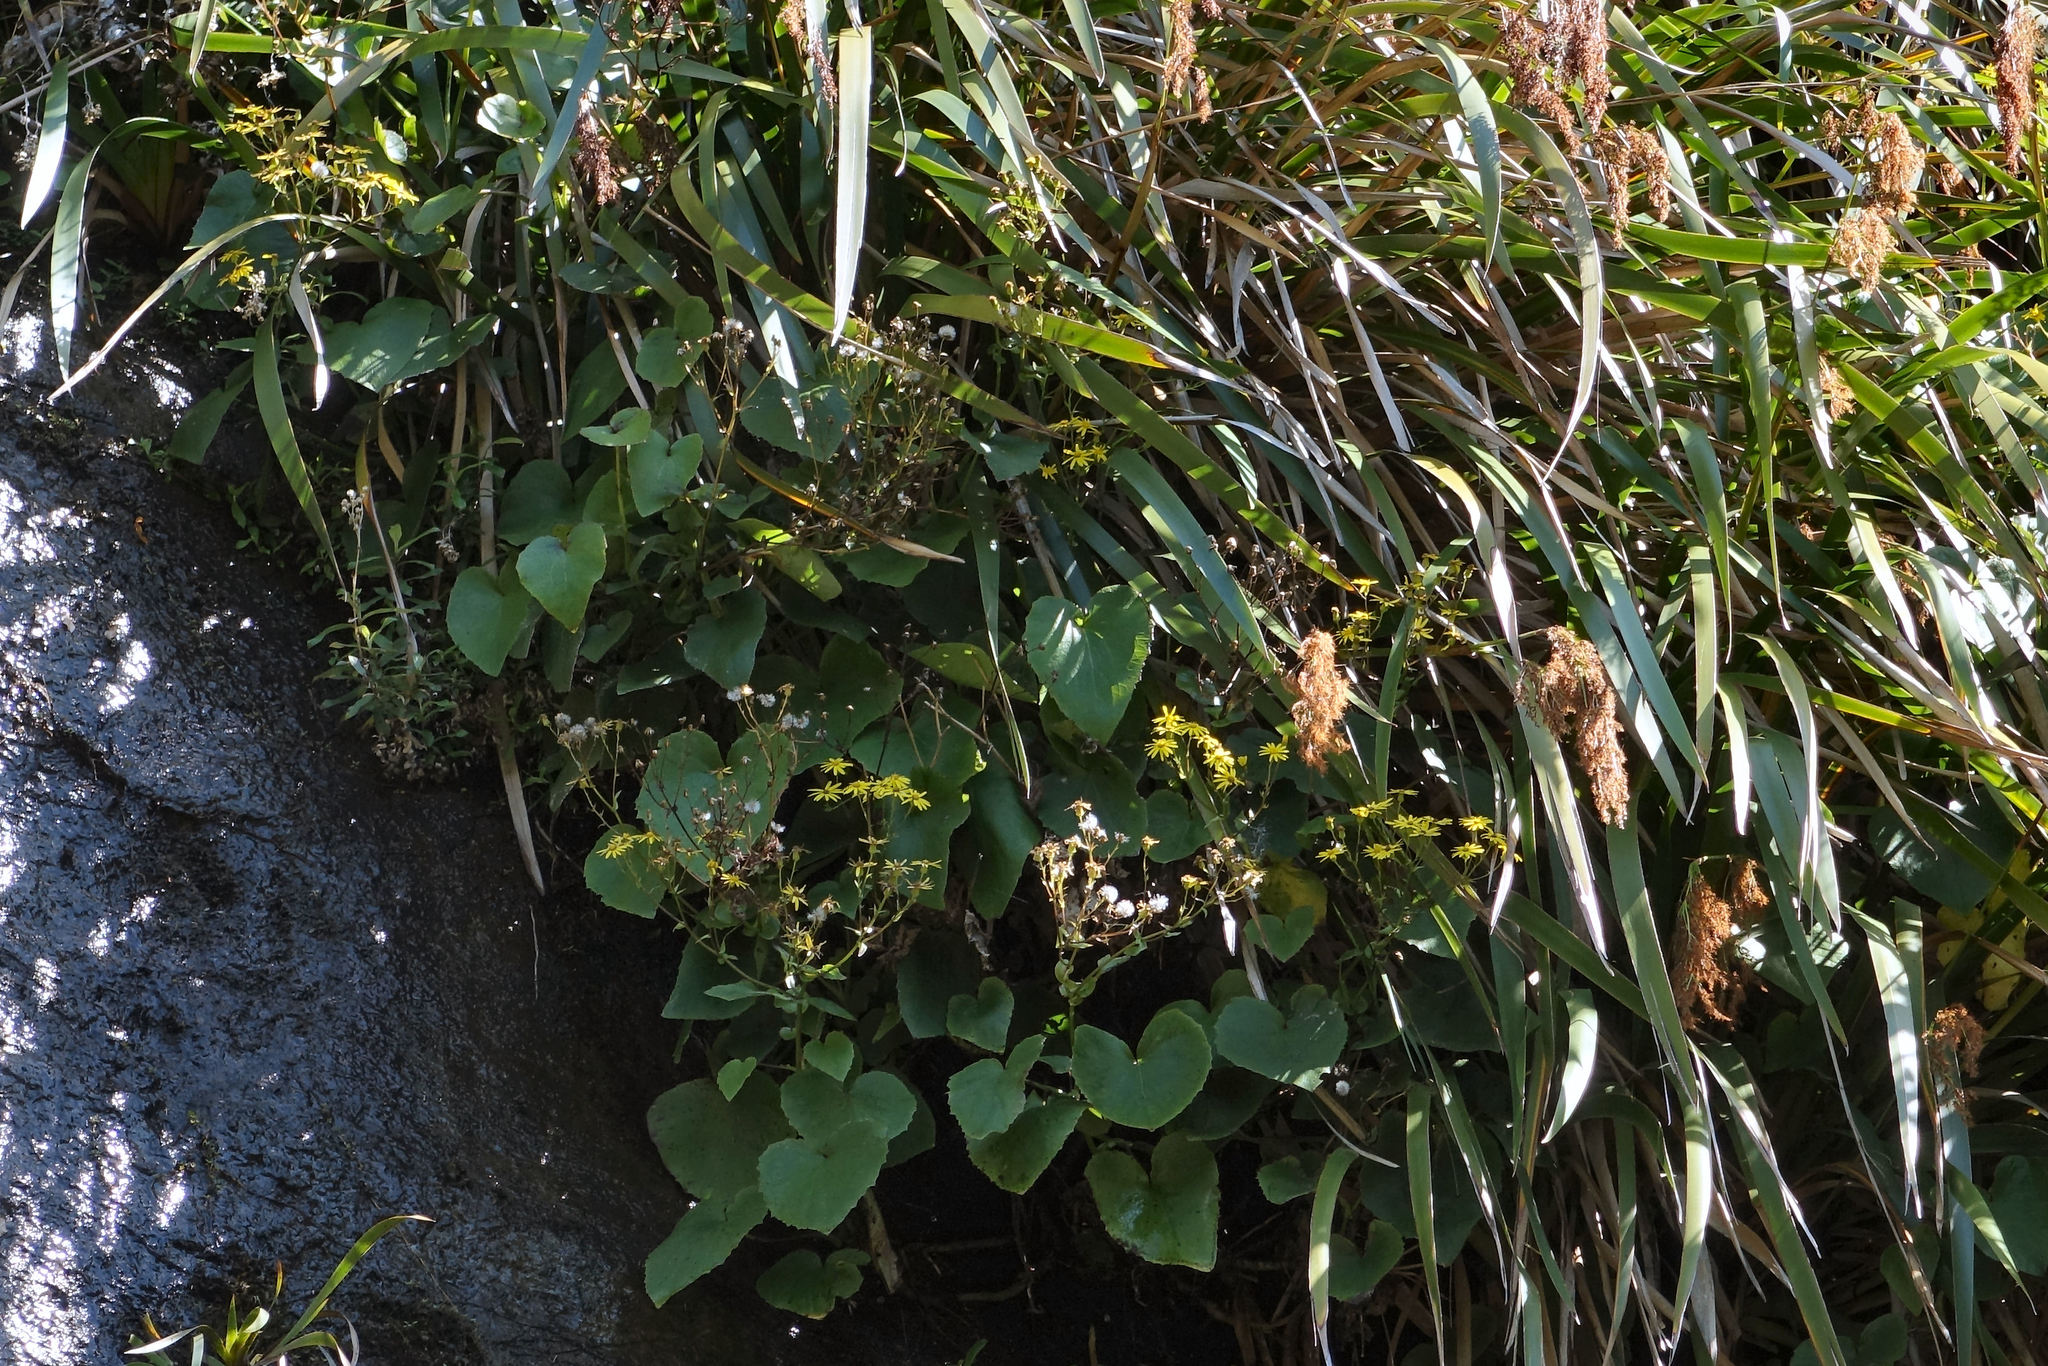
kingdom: Plantae
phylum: Tracheophyta
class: Magnoliopsida
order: Asterales
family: Asteraceae
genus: Brachyglottis
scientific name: Brachyglottis turneri
